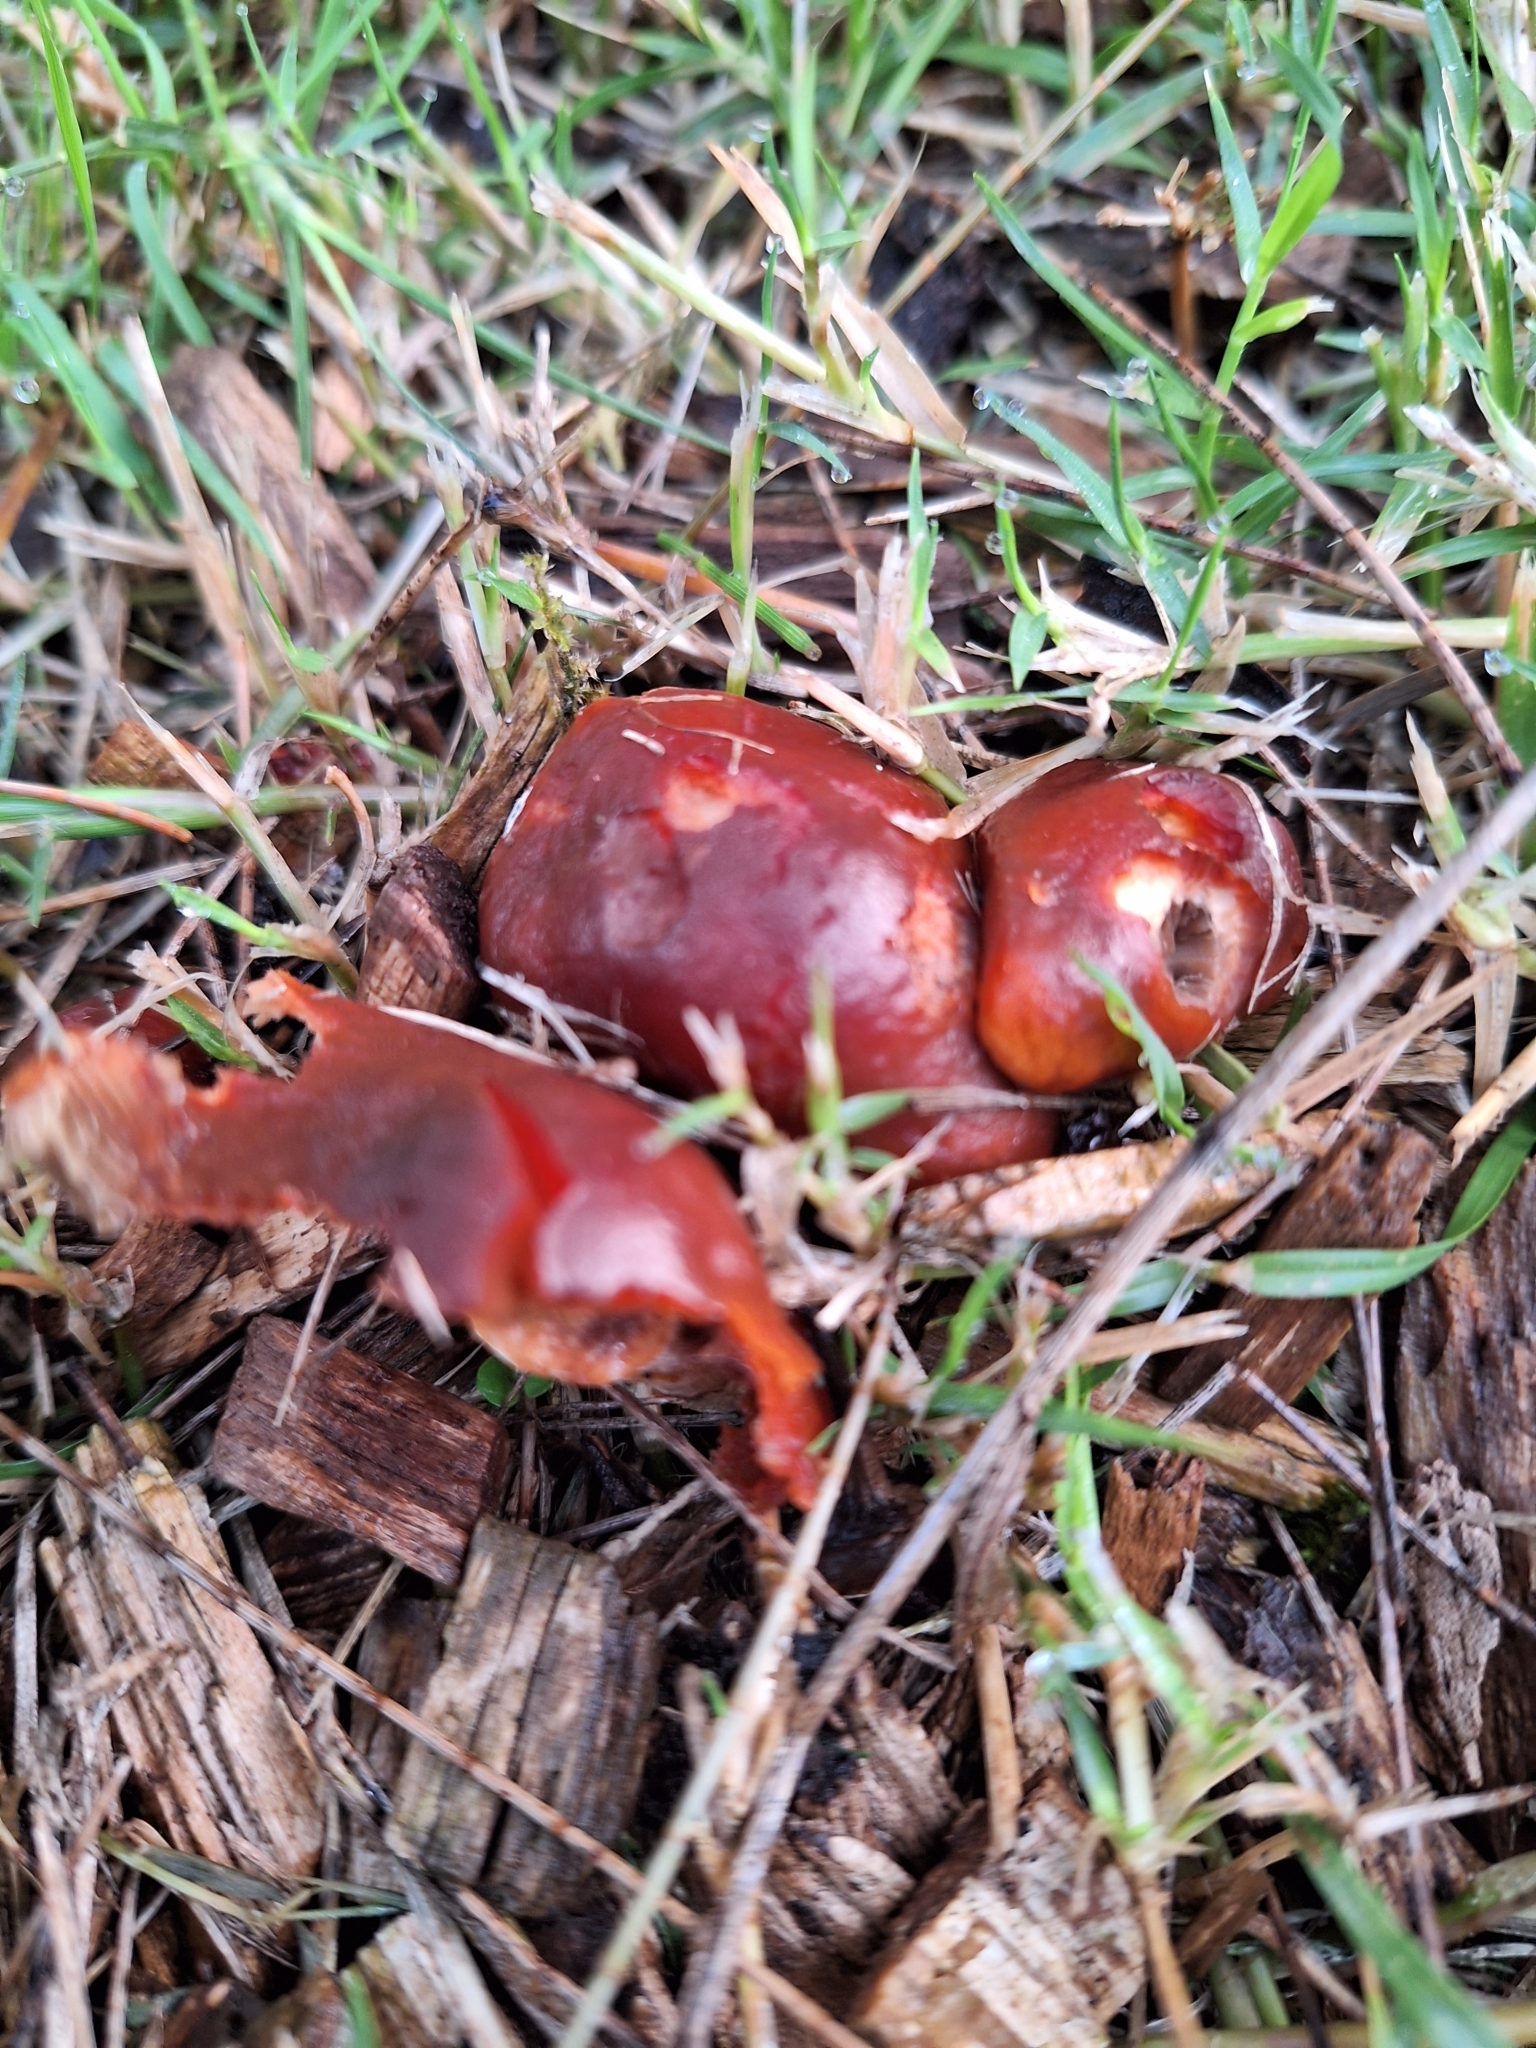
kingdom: Fungi
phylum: Basidiomycota
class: Agaricomycetes
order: Agaricales
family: Strophariaceae
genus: Leratiomyces
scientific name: Leratiomyces ceres
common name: Redlead roundhead
